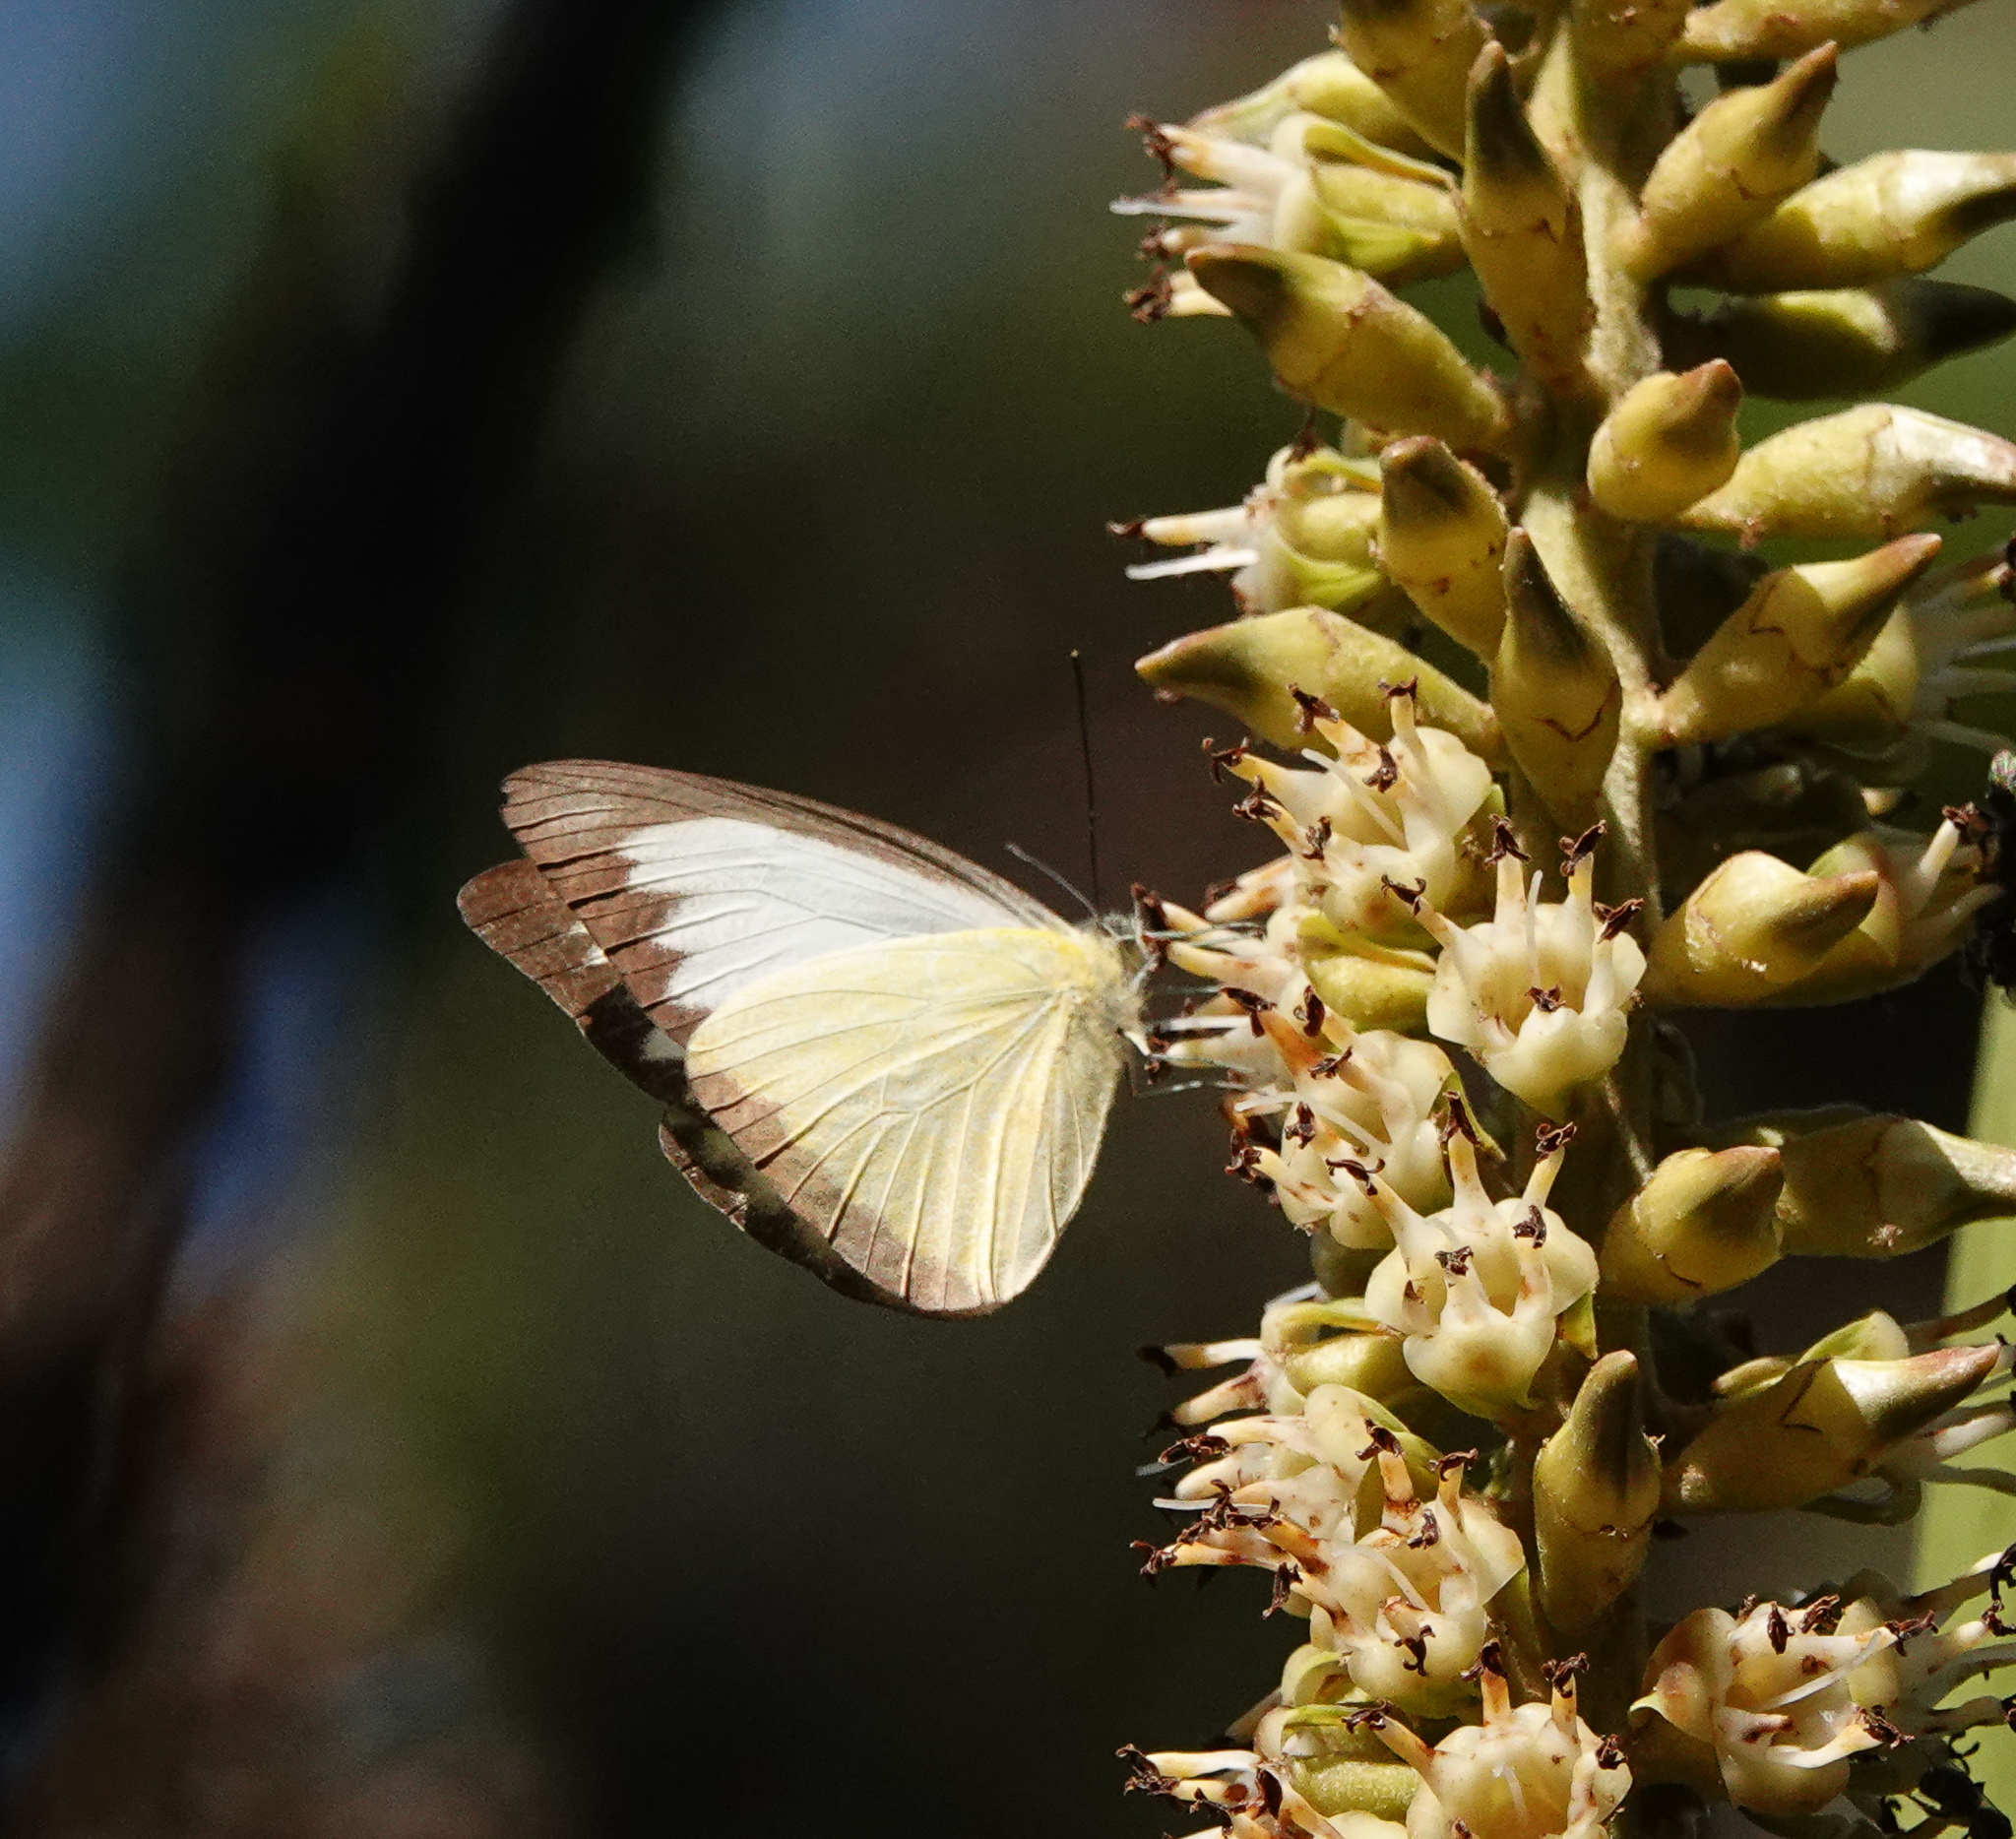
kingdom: Animalia
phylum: Arthropoda
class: Insecta
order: Lepidoptera
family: Pieridae
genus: Appias
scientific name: Appias lyncida
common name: Chocolate albatross
